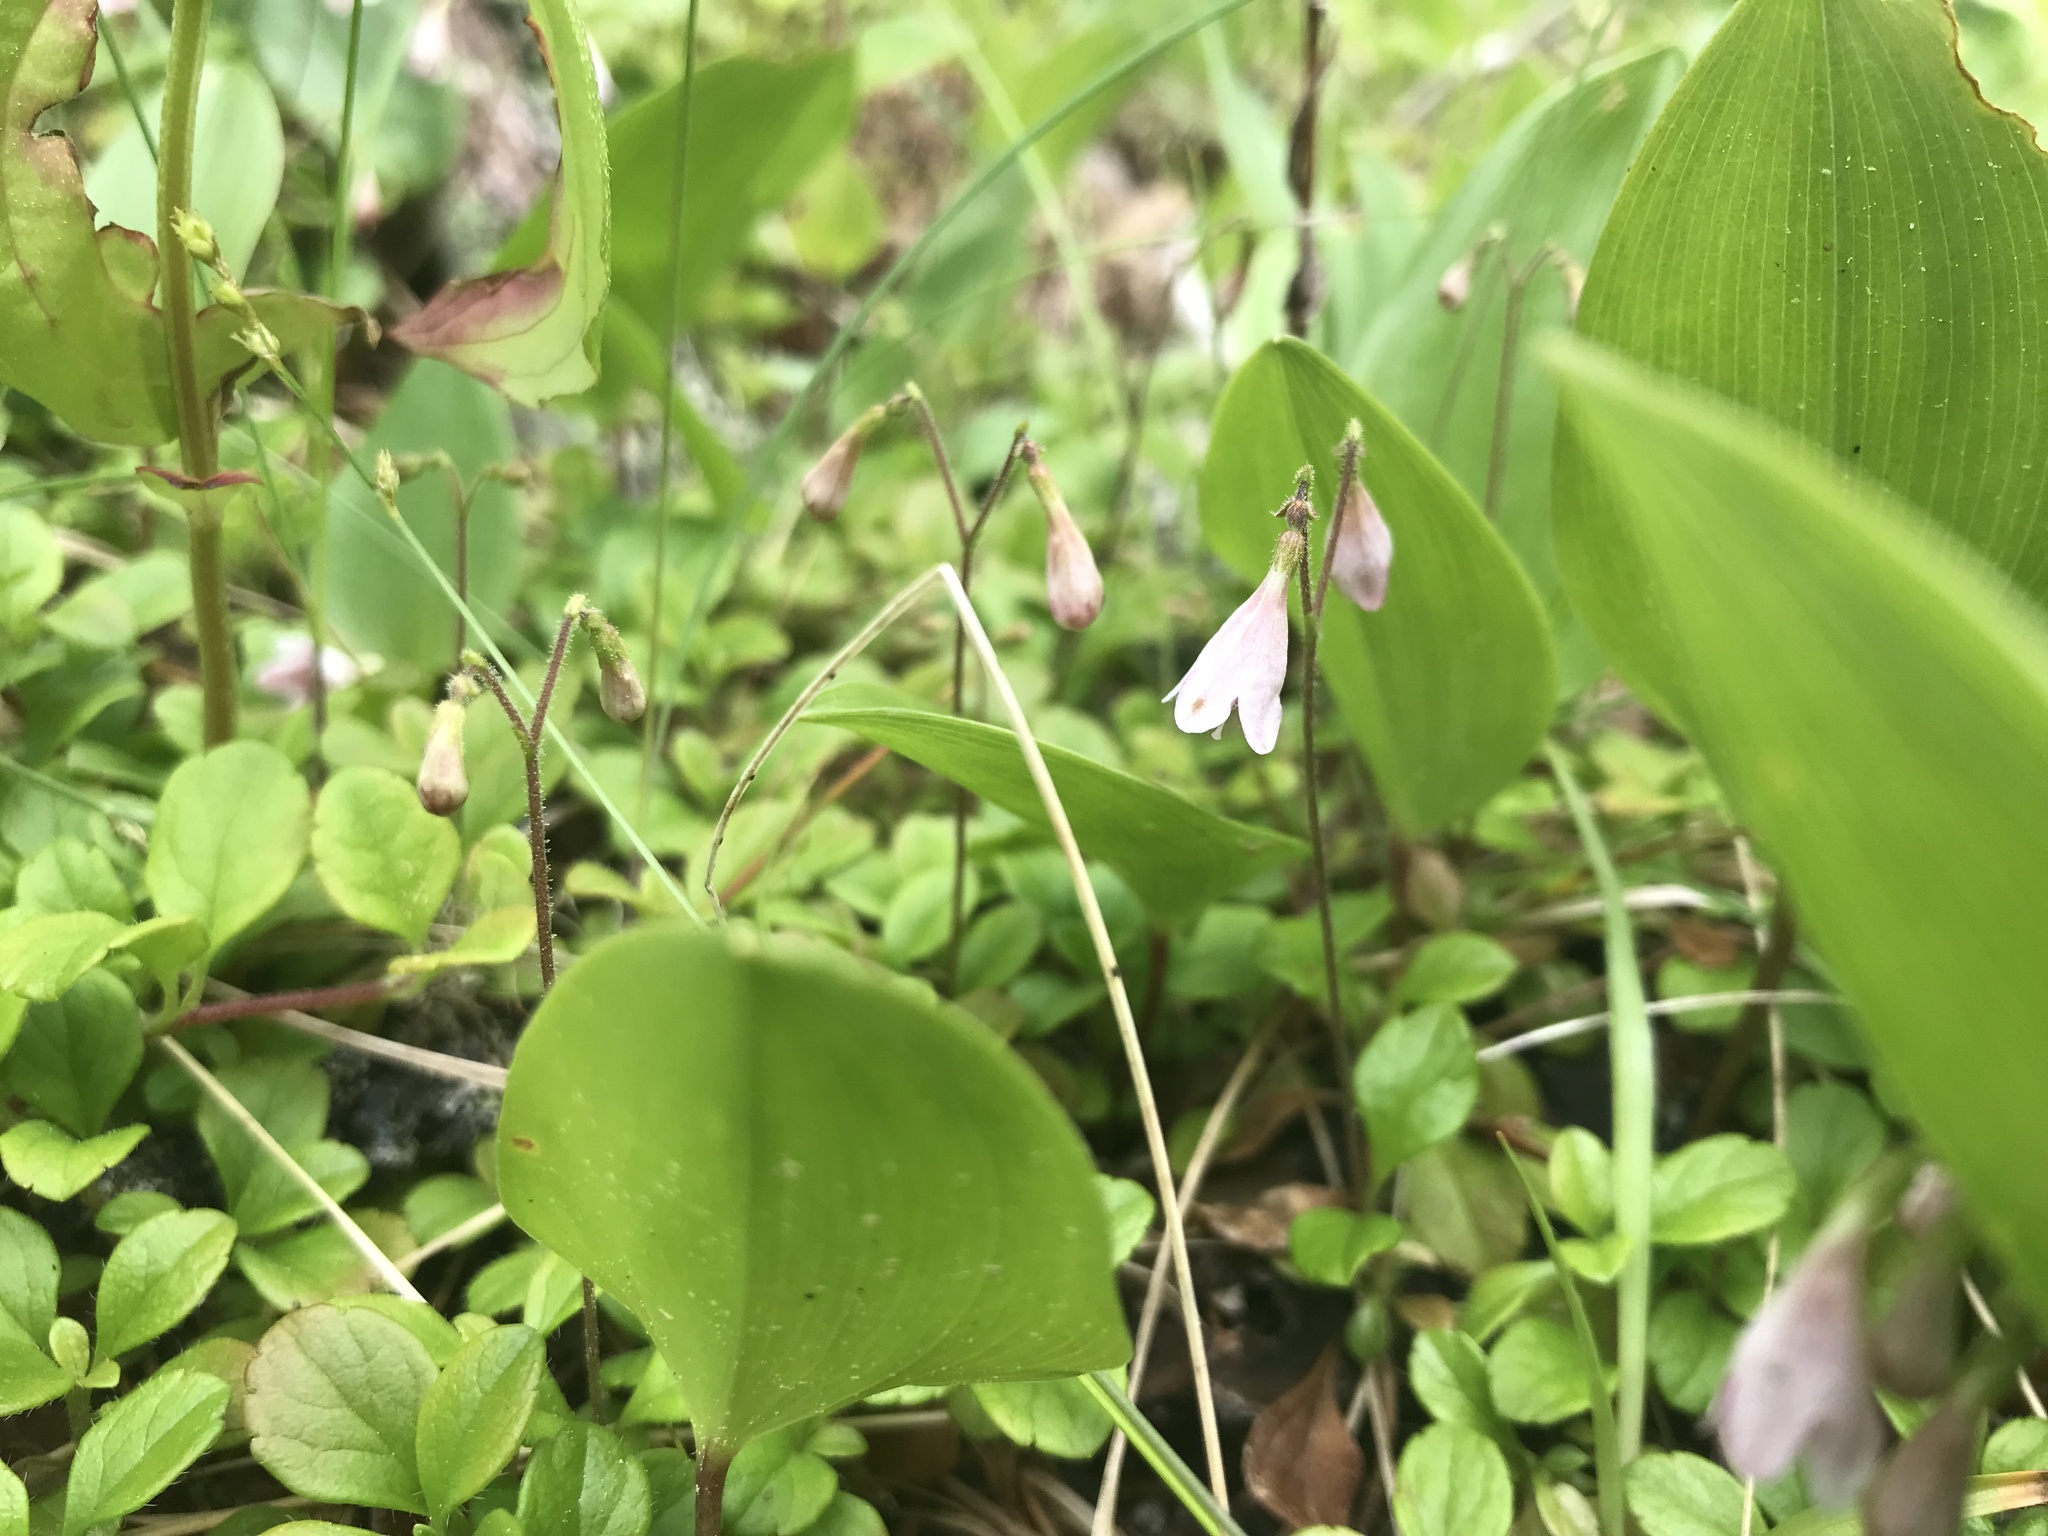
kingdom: Plantae
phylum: Tracheophyta
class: Magnoliopsida
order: Dipsacales
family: Caprifoliaceae
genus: Linnaea
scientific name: Linnaea borealis
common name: Twinflower
